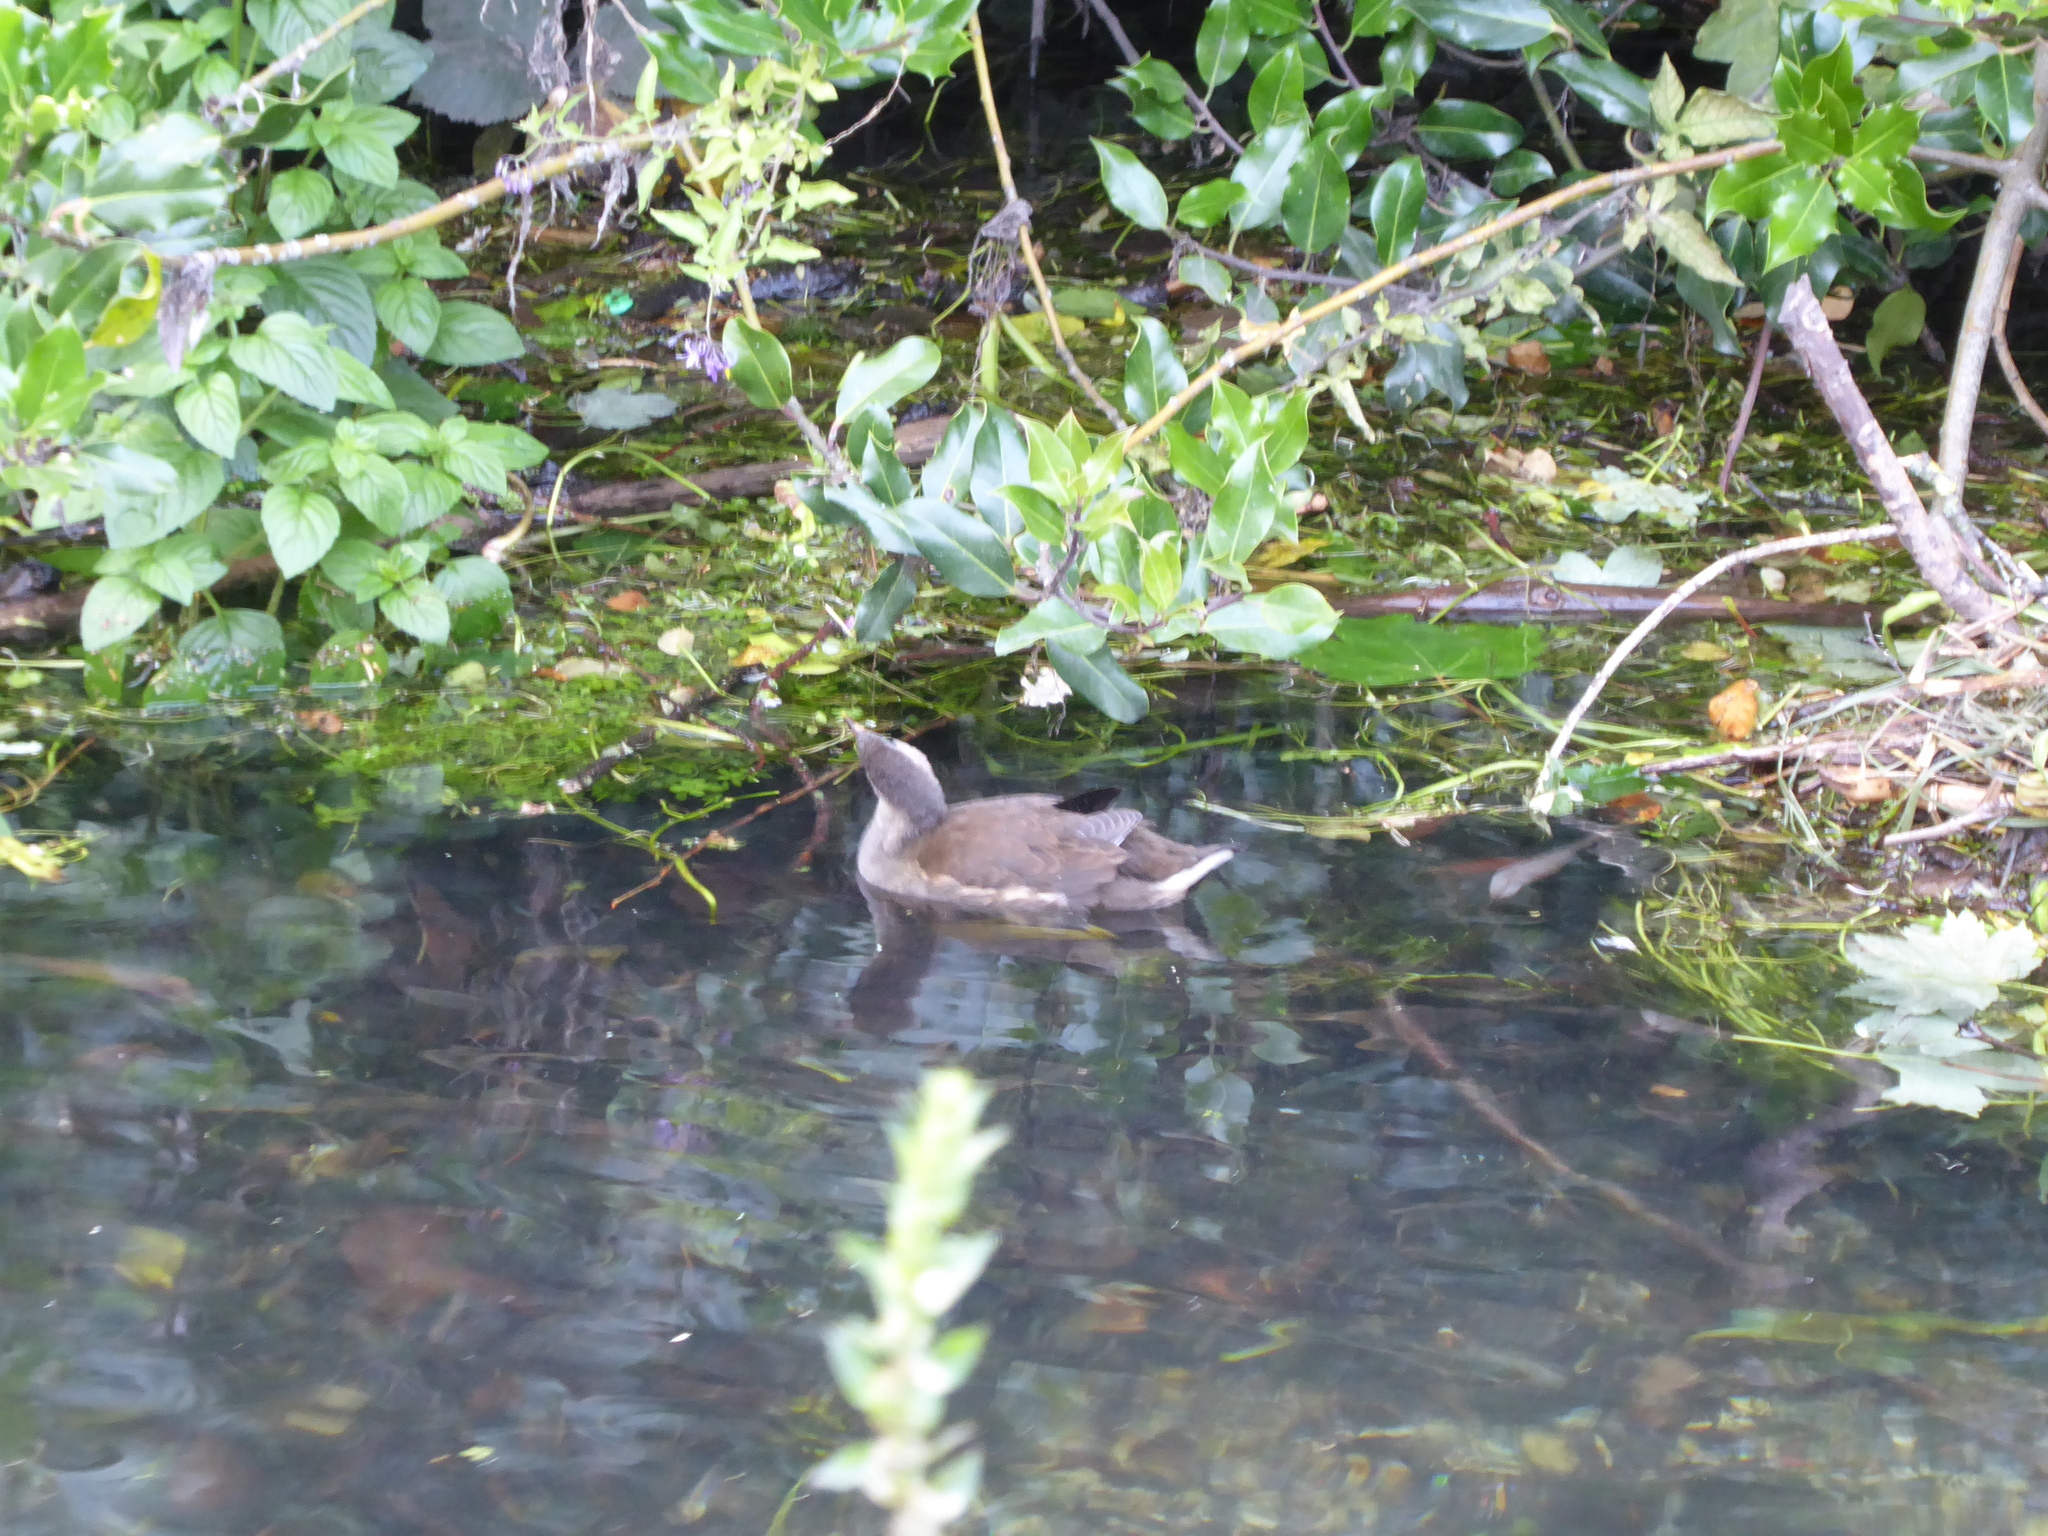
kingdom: Animalia
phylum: Chordata
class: Aves
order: Gruiformes
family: Rallidae
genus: Gallinula
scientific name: Gallinula chloropus
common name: Common moorhen
